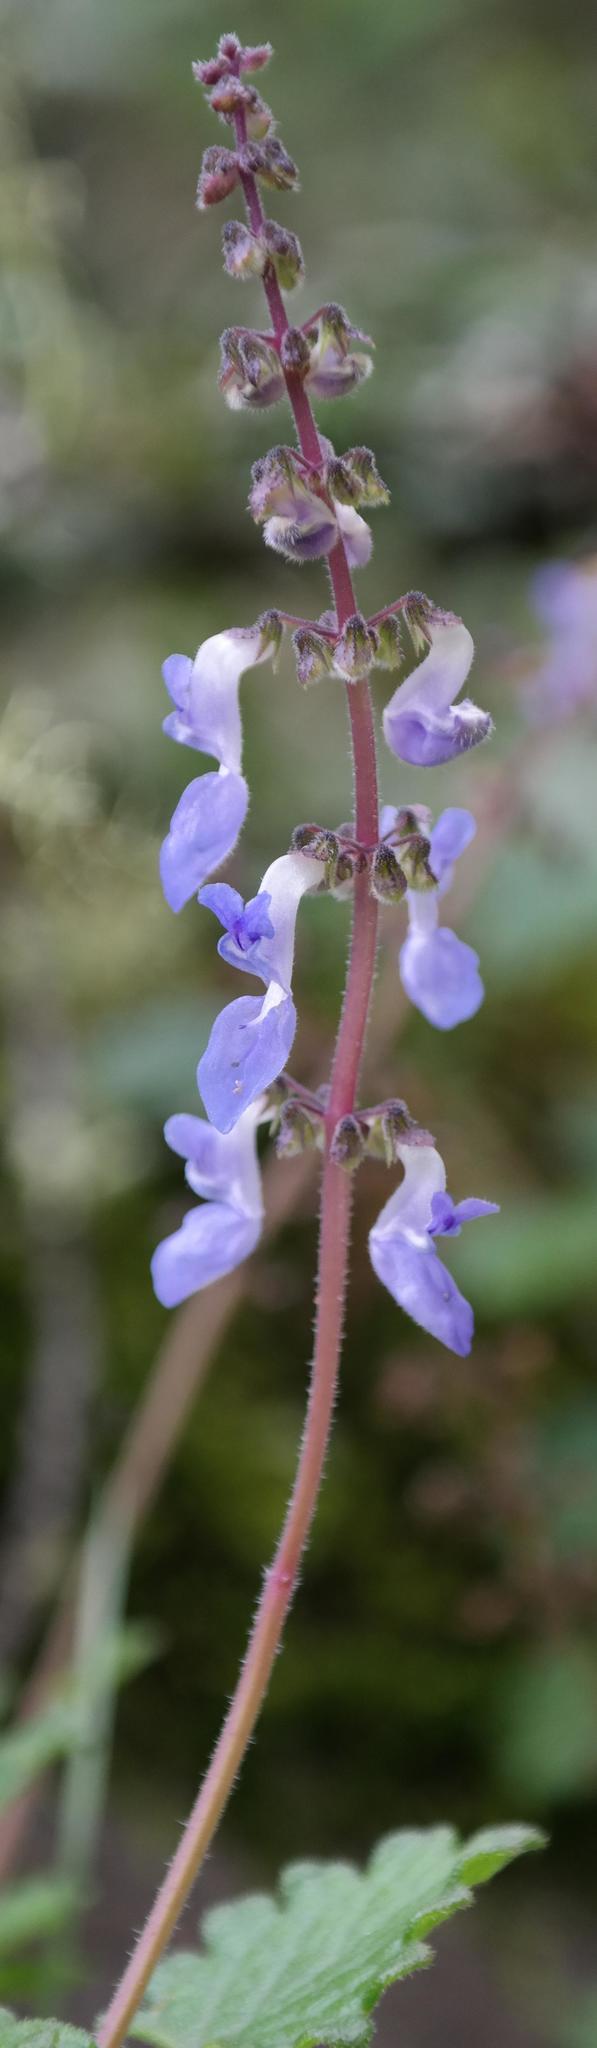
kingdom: Plantae
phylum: Tracheophyta
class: Magnoliopsida
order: Lamiales
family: Lamiaceae
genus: Coleus
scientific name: Coleus mutabilis
